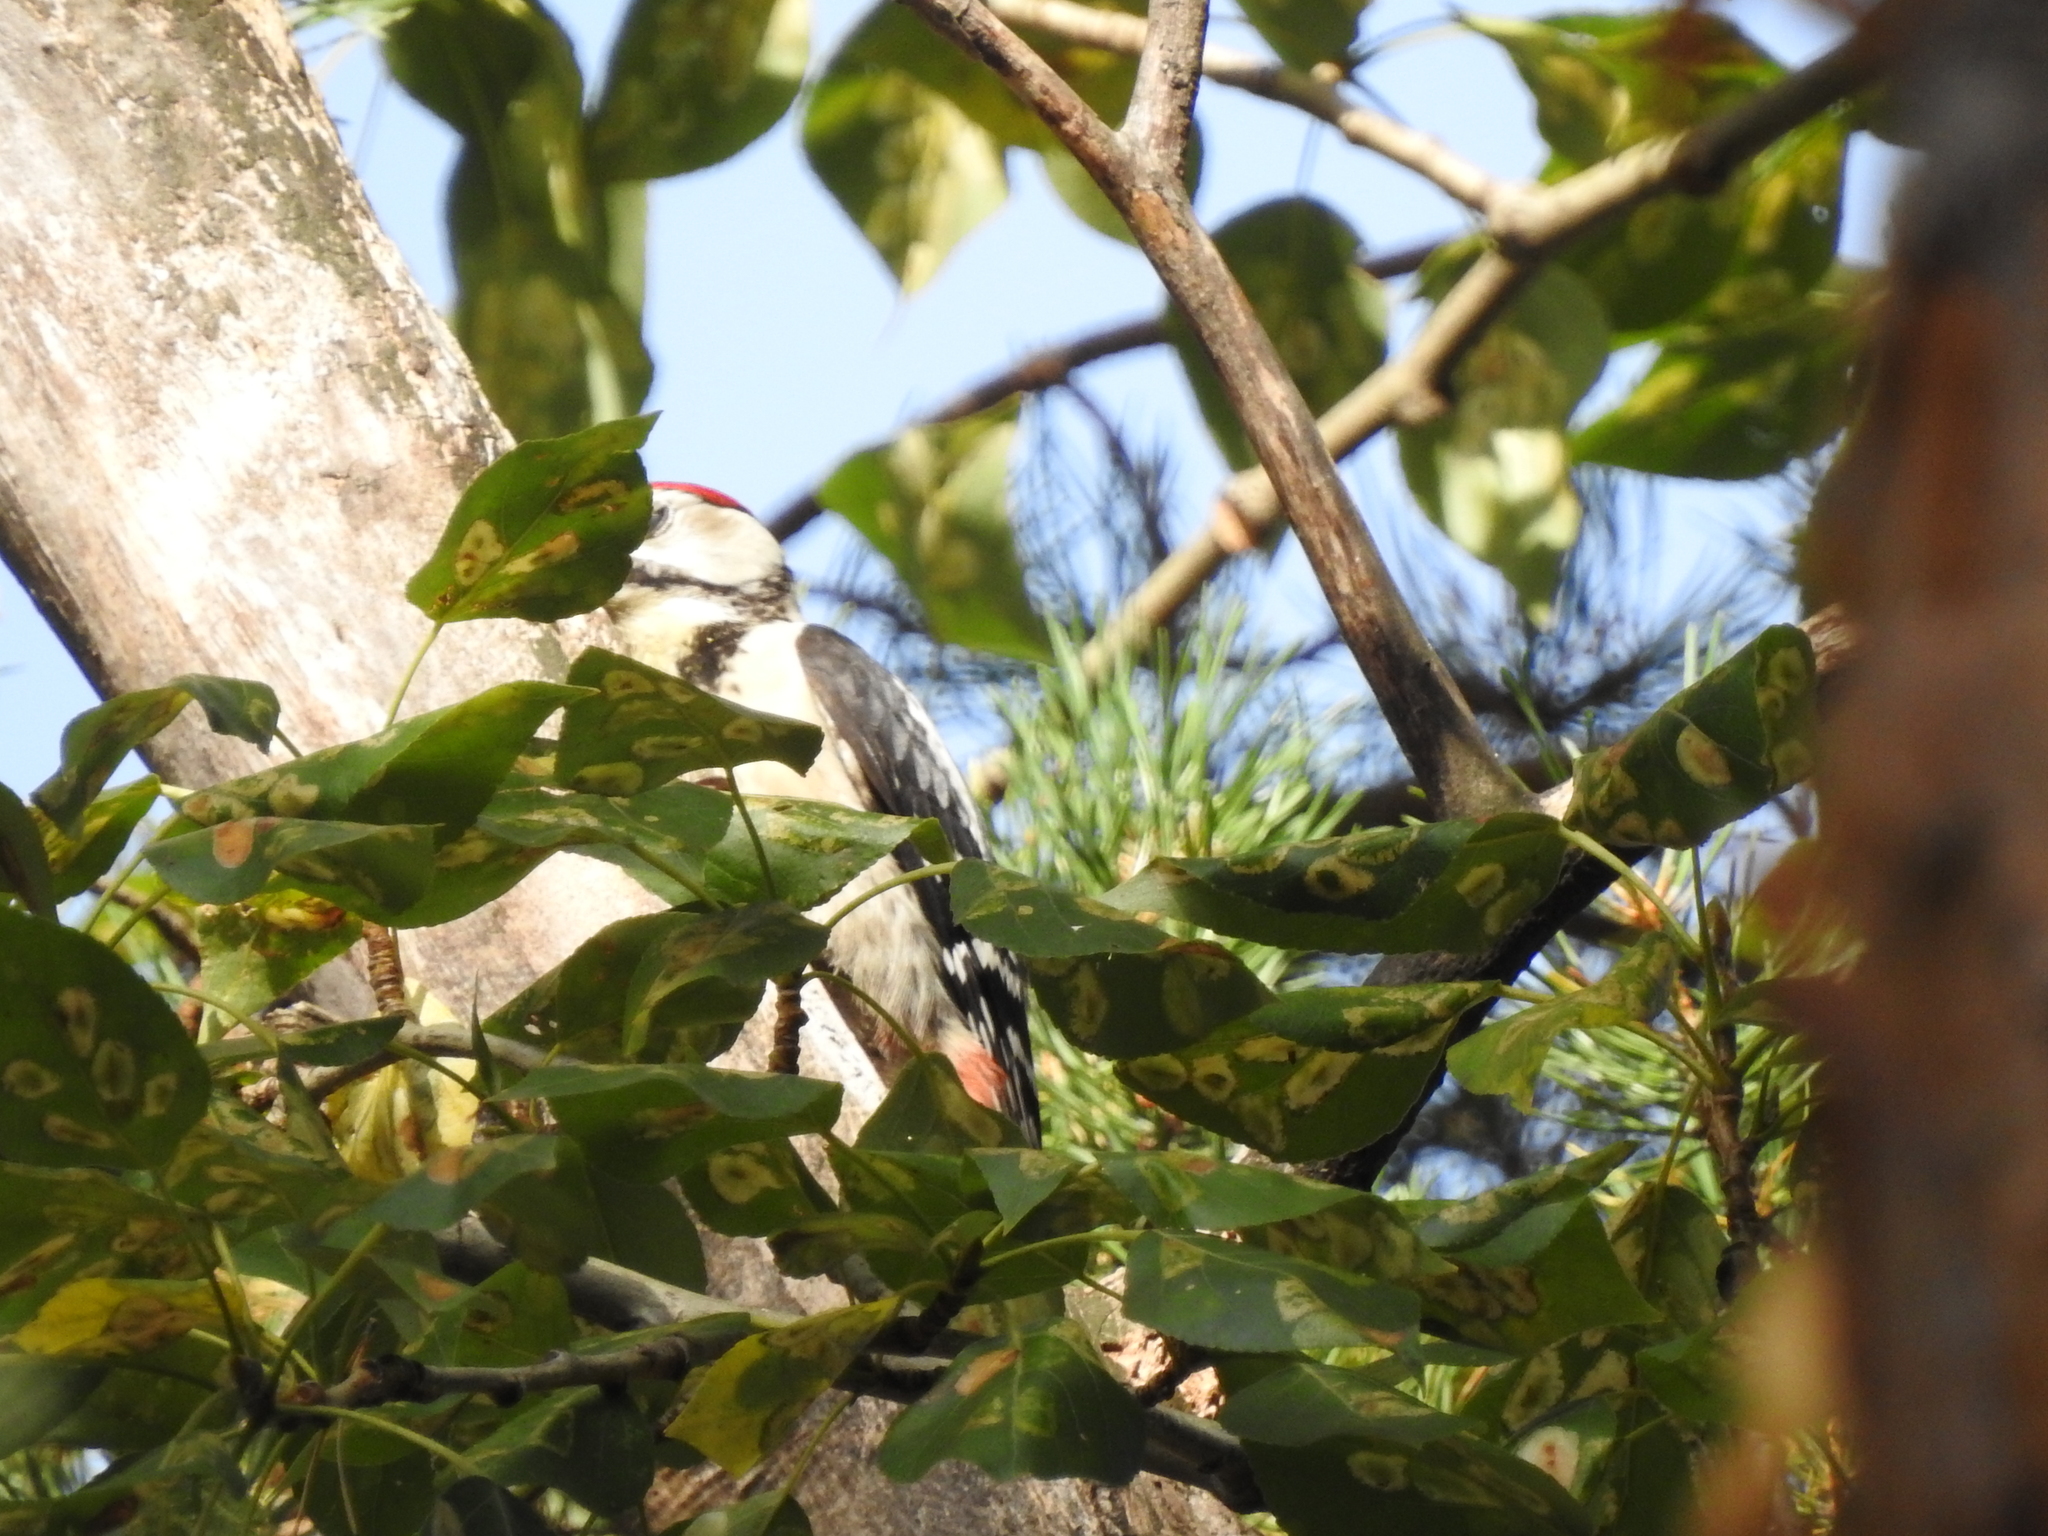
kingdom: Animalia
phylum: Chordata
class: Aves
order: Piciformes
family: Picidae
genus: Dendrocopos
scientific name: Dendrocopos major
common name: Great spotted woodpecker
